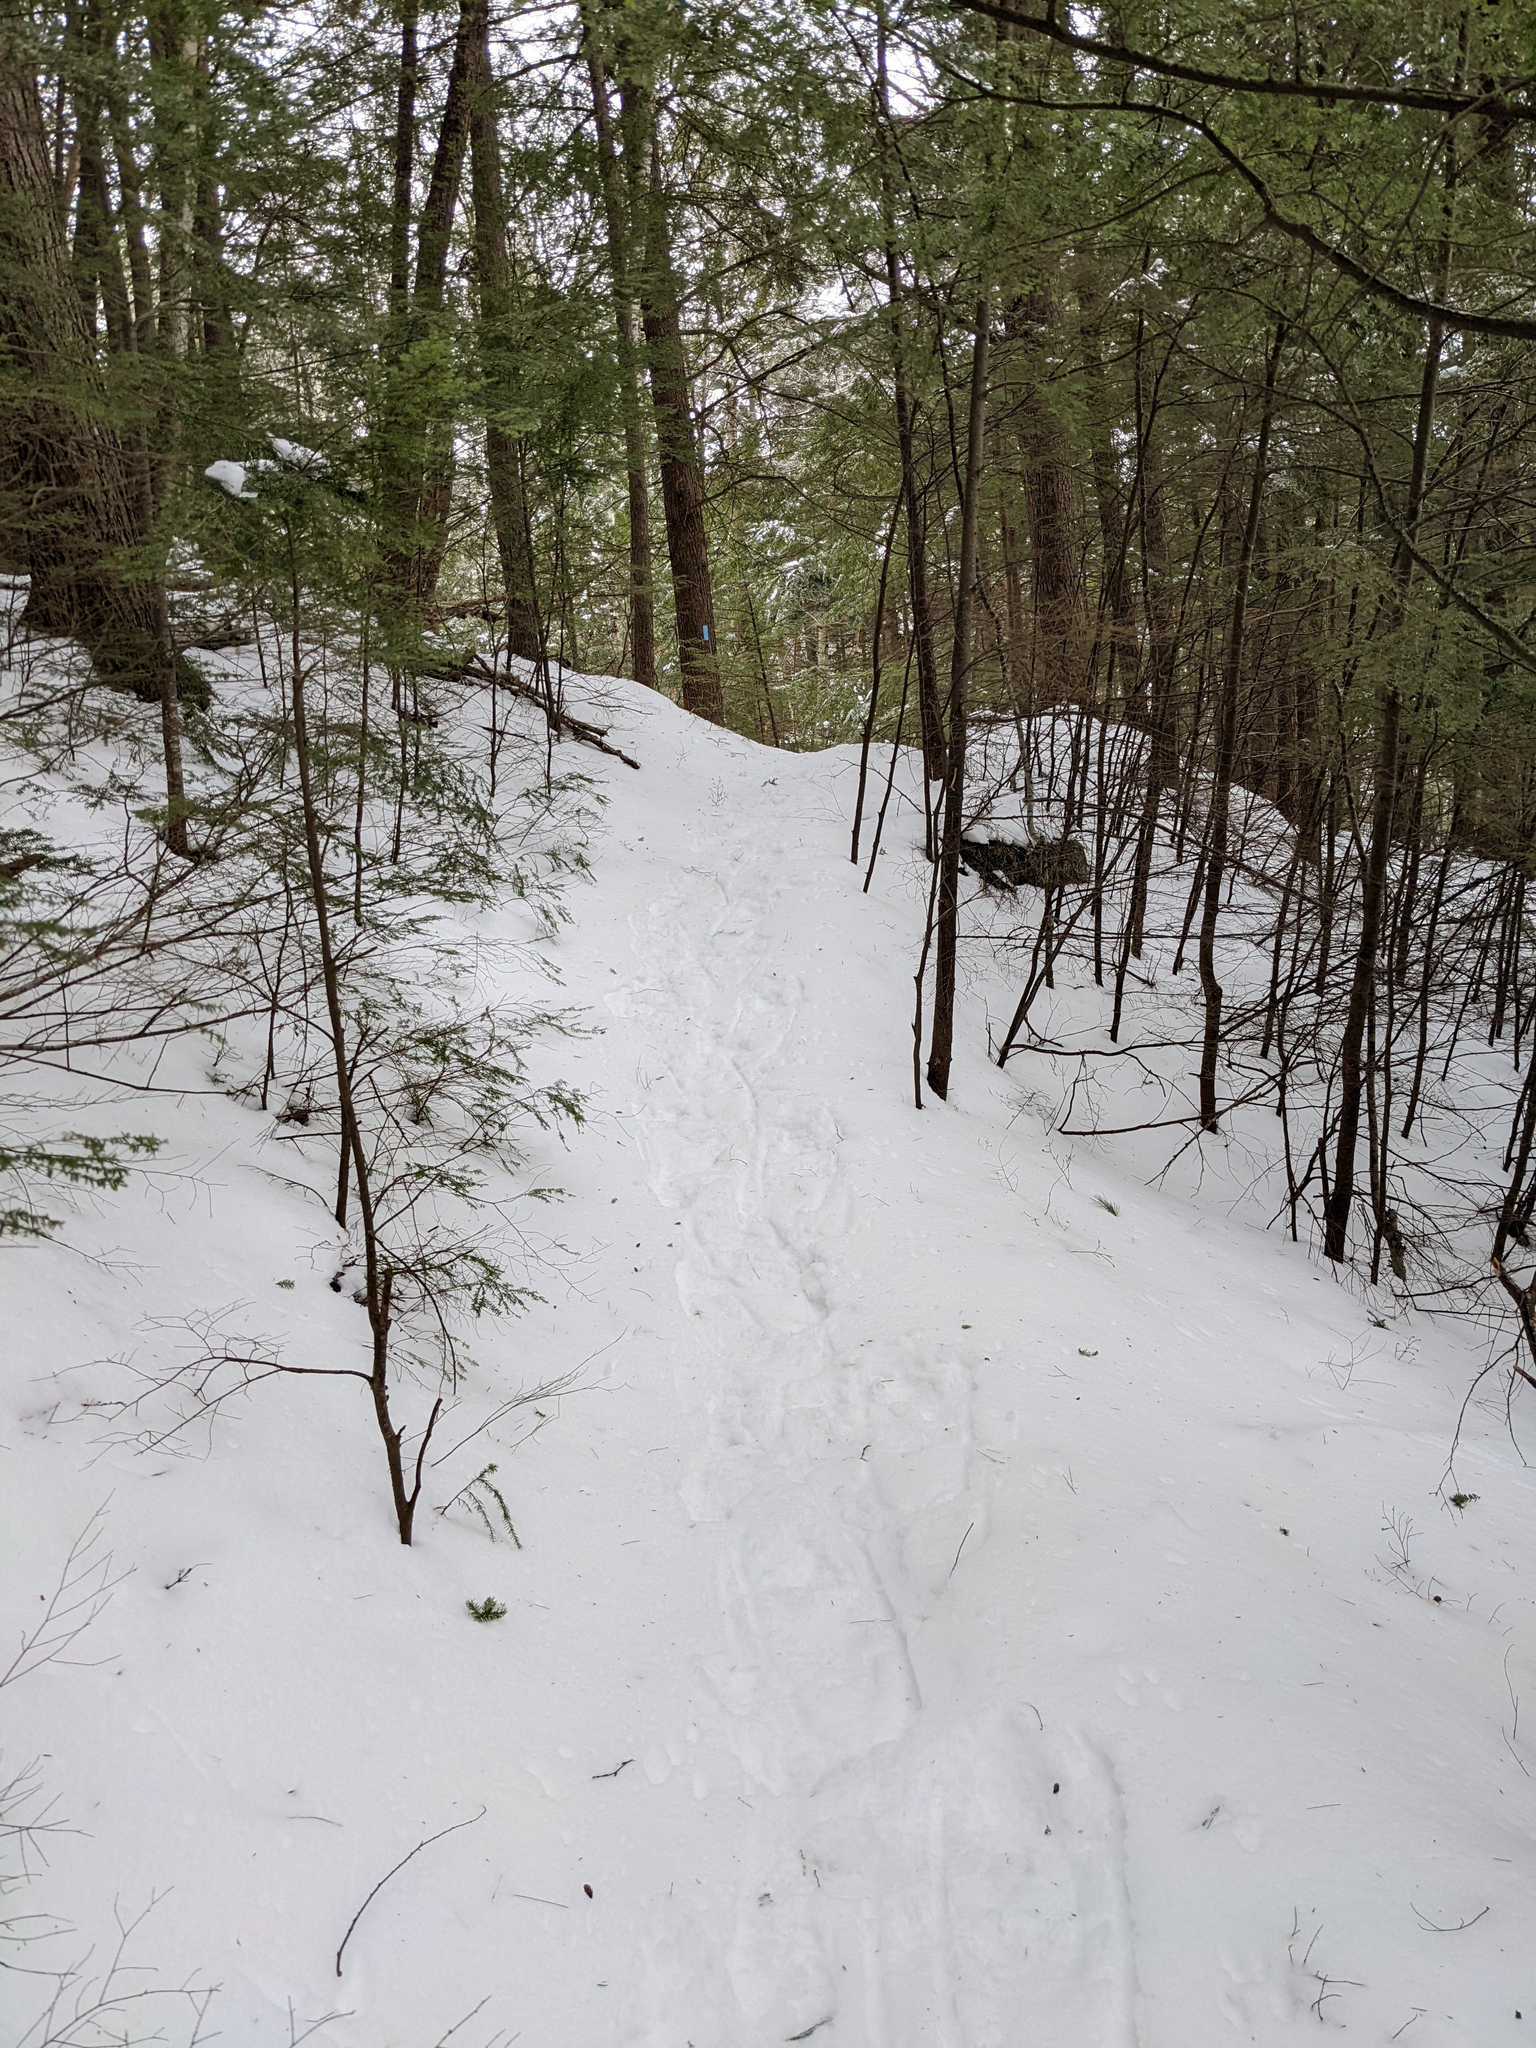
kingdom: Plantae
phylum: Tracheophyta
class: Pinopsida
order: Pinales
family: Pinaceae
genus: Tsuga
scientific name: Tsuga canadensis
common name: Eastern hemlock
